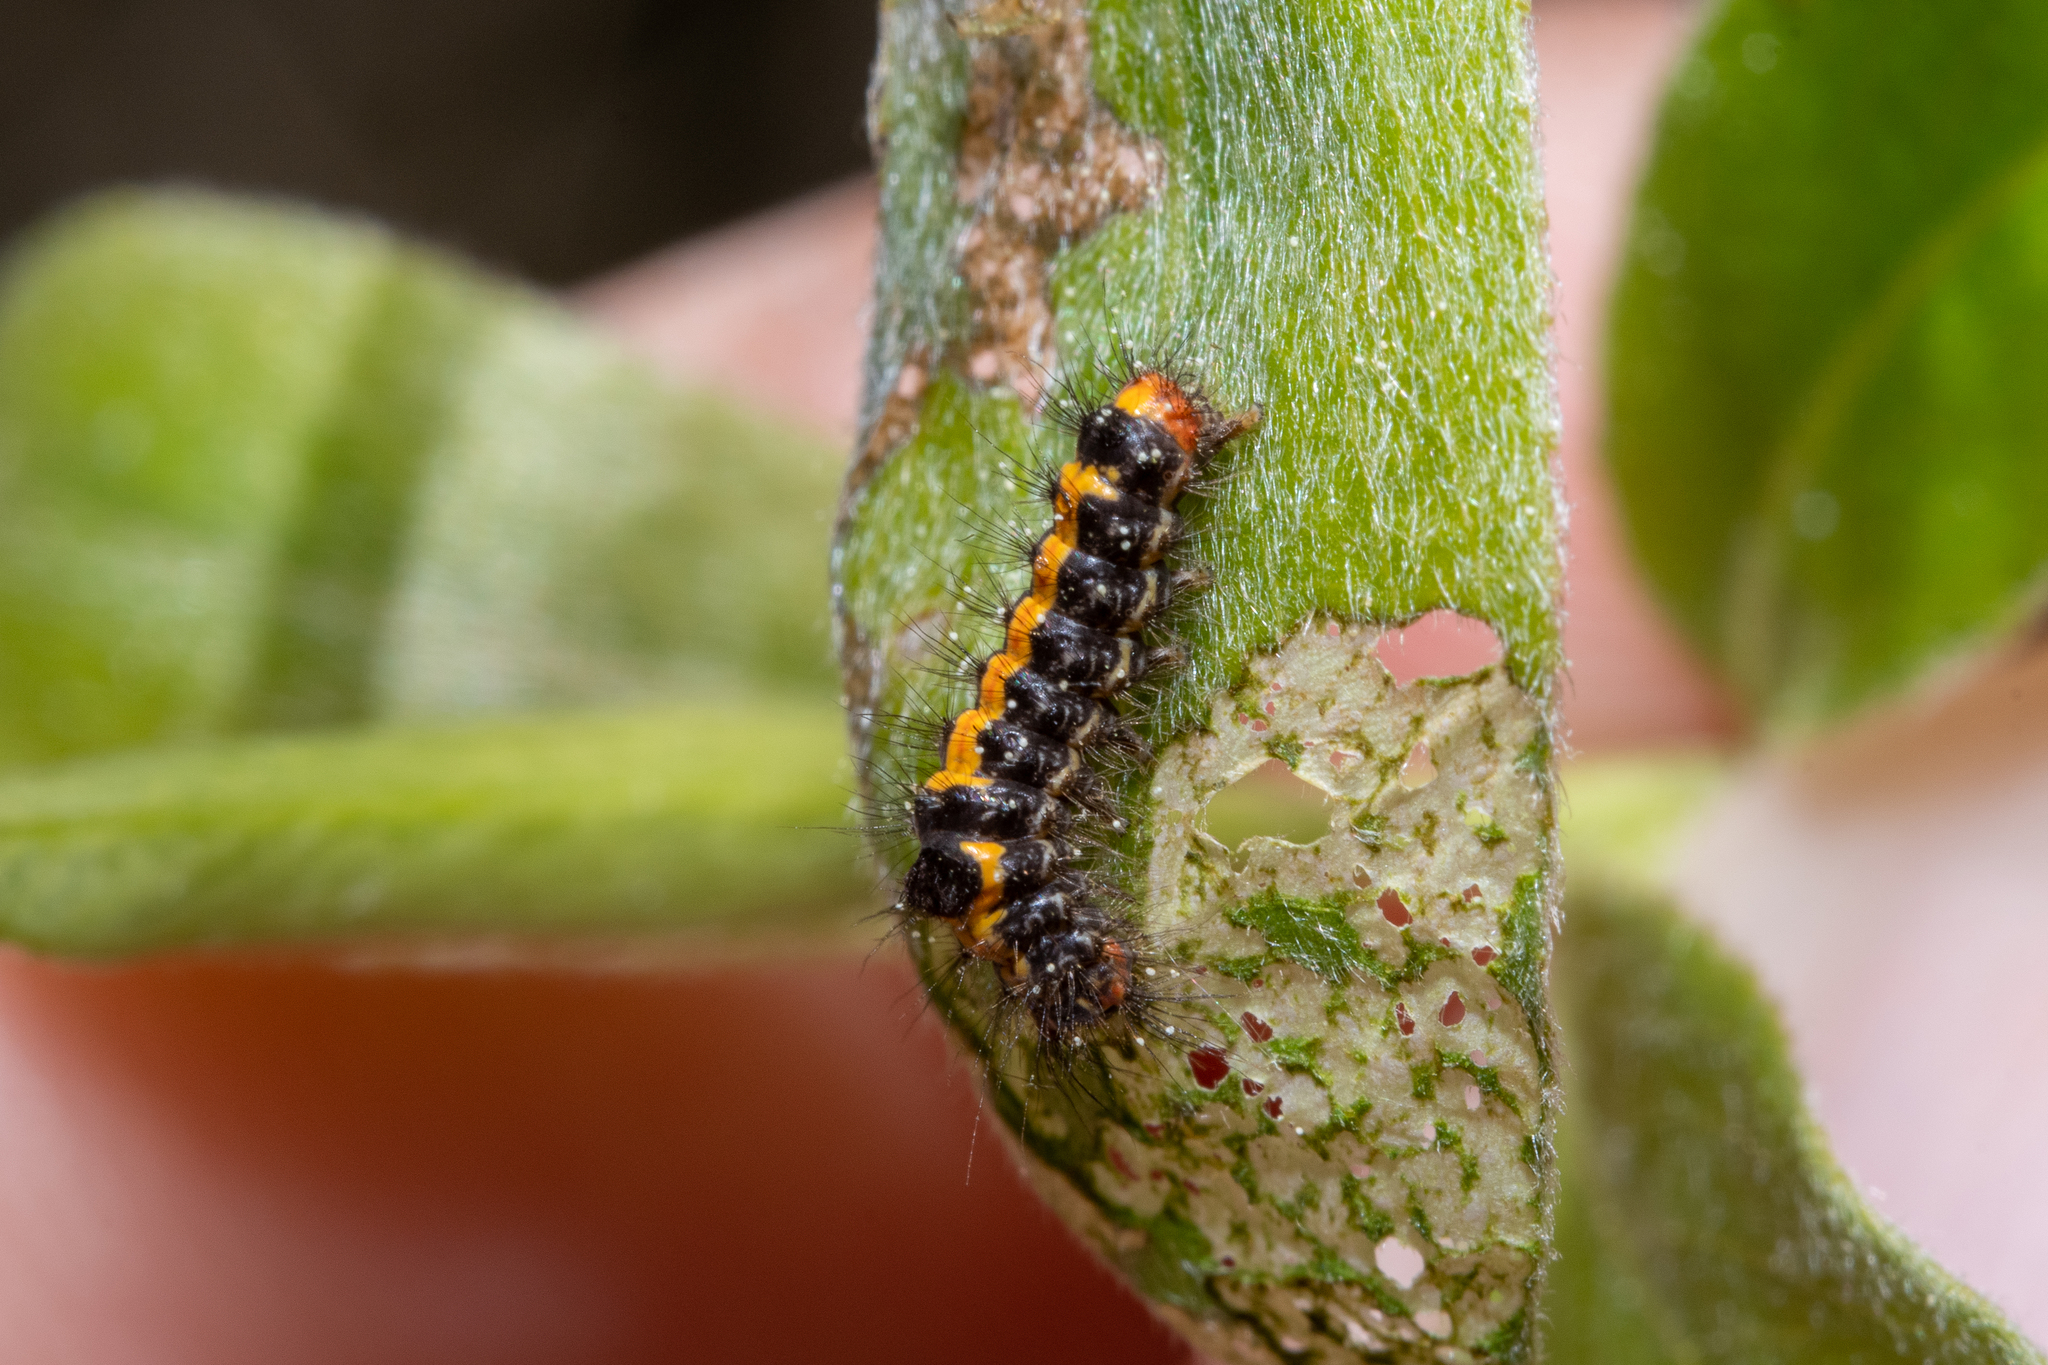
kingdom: Animalia
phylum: Arthropoda
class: Insecta
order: Lepidoptera
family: Erebidae
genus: Sphrageidus
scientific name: Sphrageidus similis
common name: Yellow-tail
